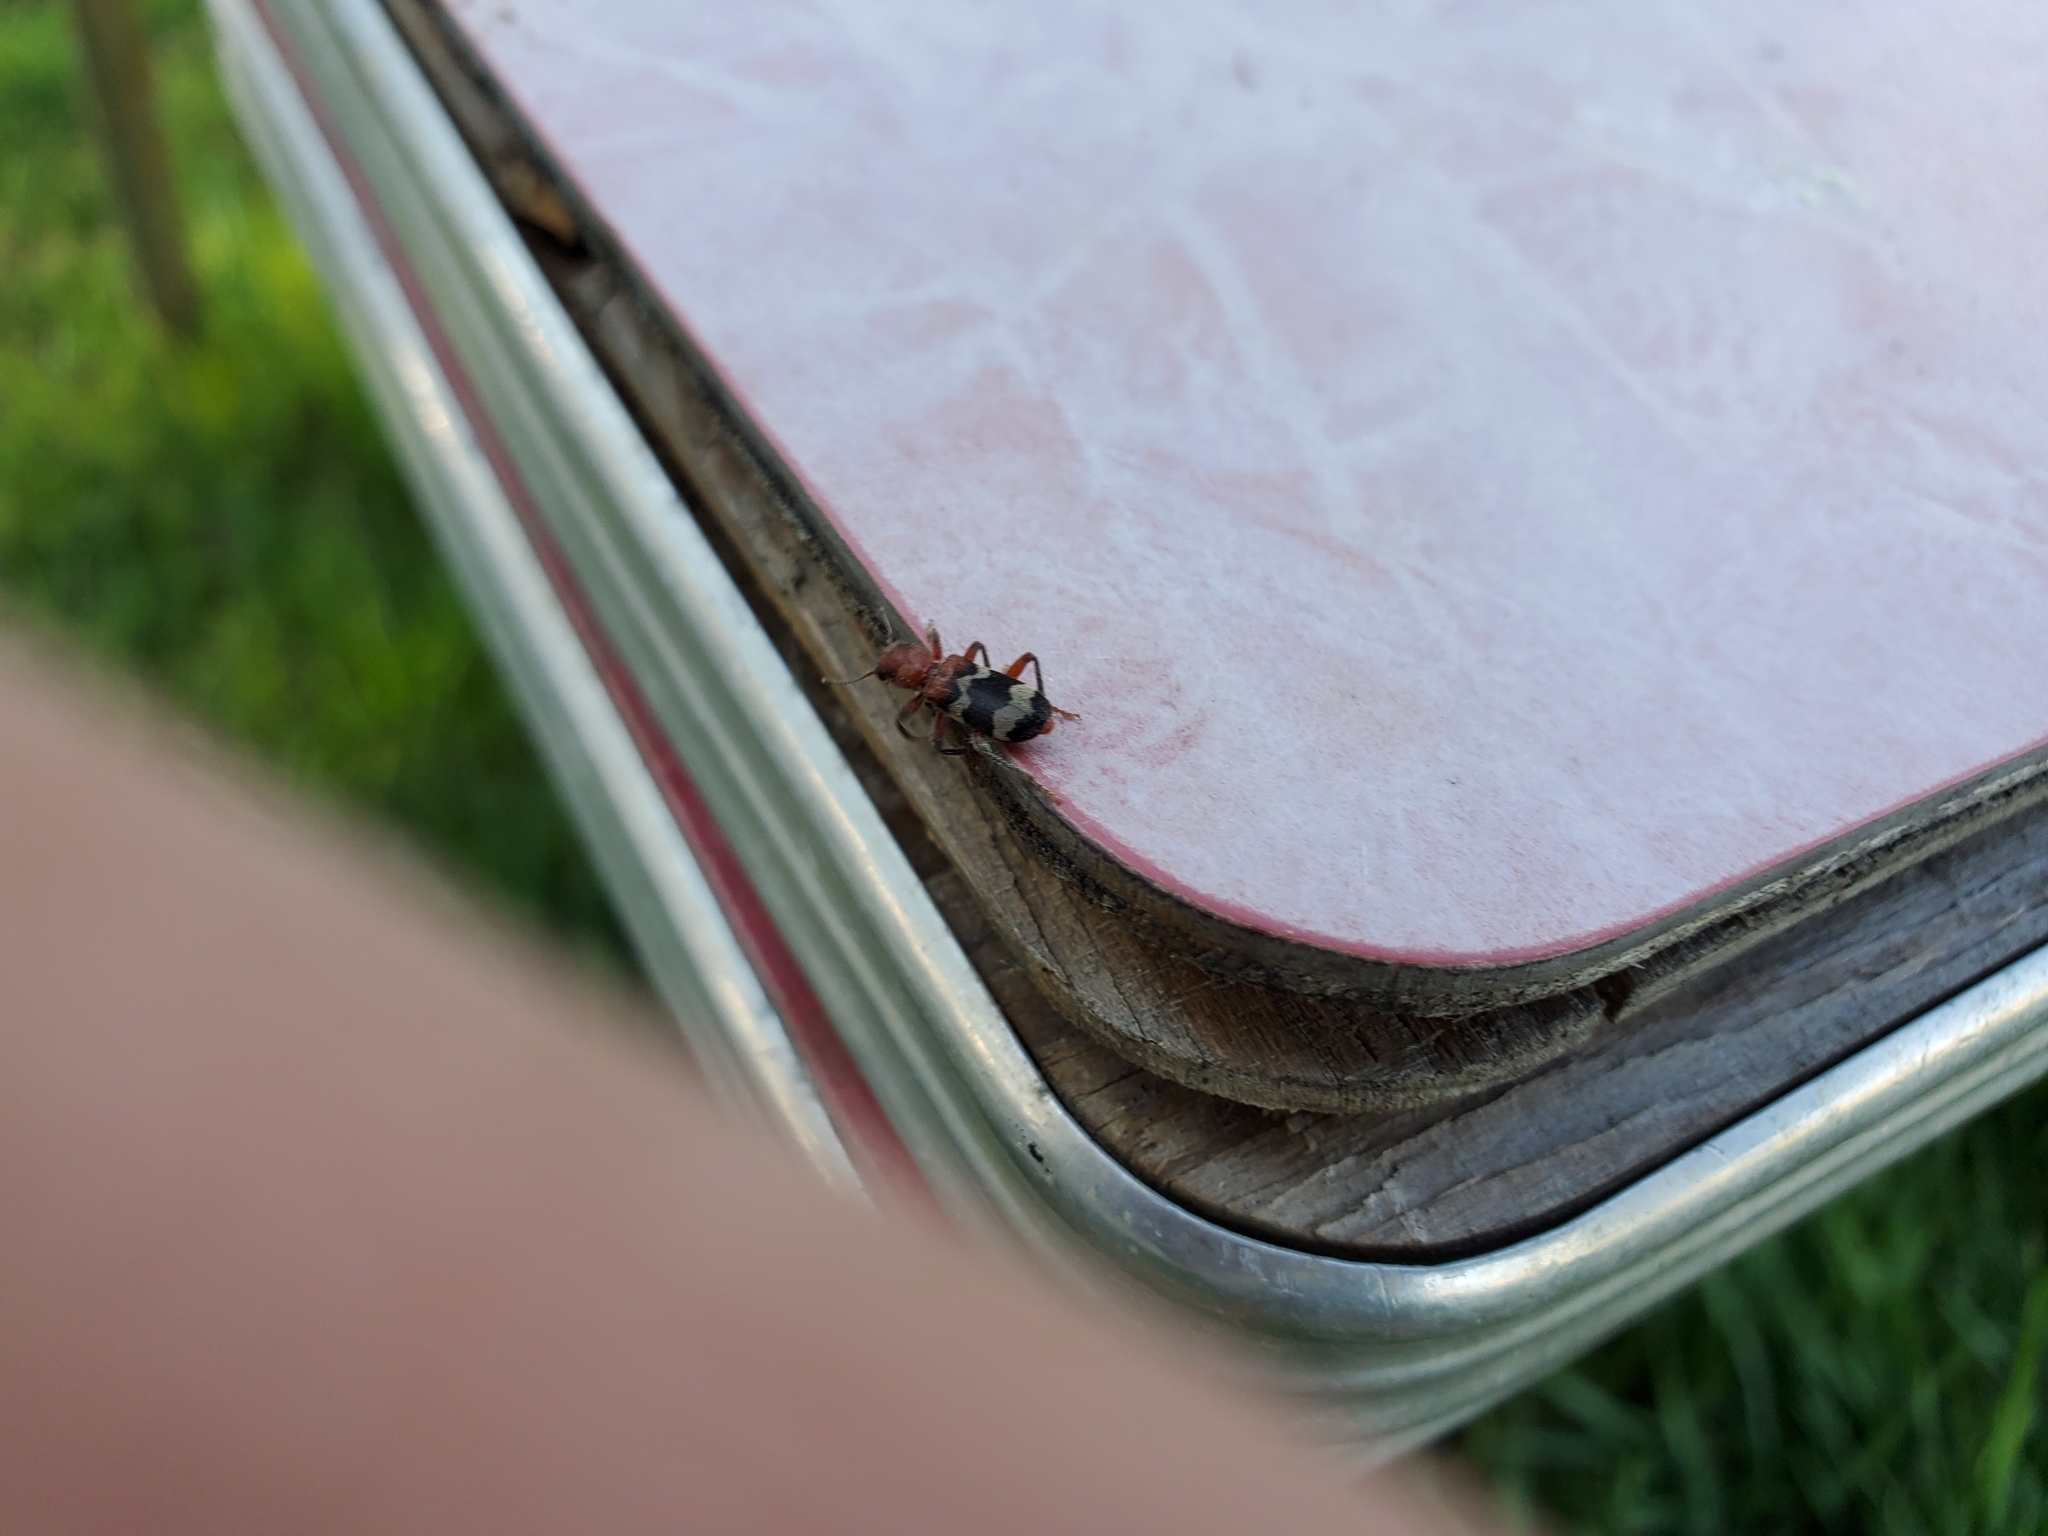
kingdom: Animalia
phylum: Arthropoda
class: Insecta
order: Coleoptera
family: Cleridae
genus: Thanasimus
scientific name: Thanasimus dubius
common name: Wavering checkered beetle
